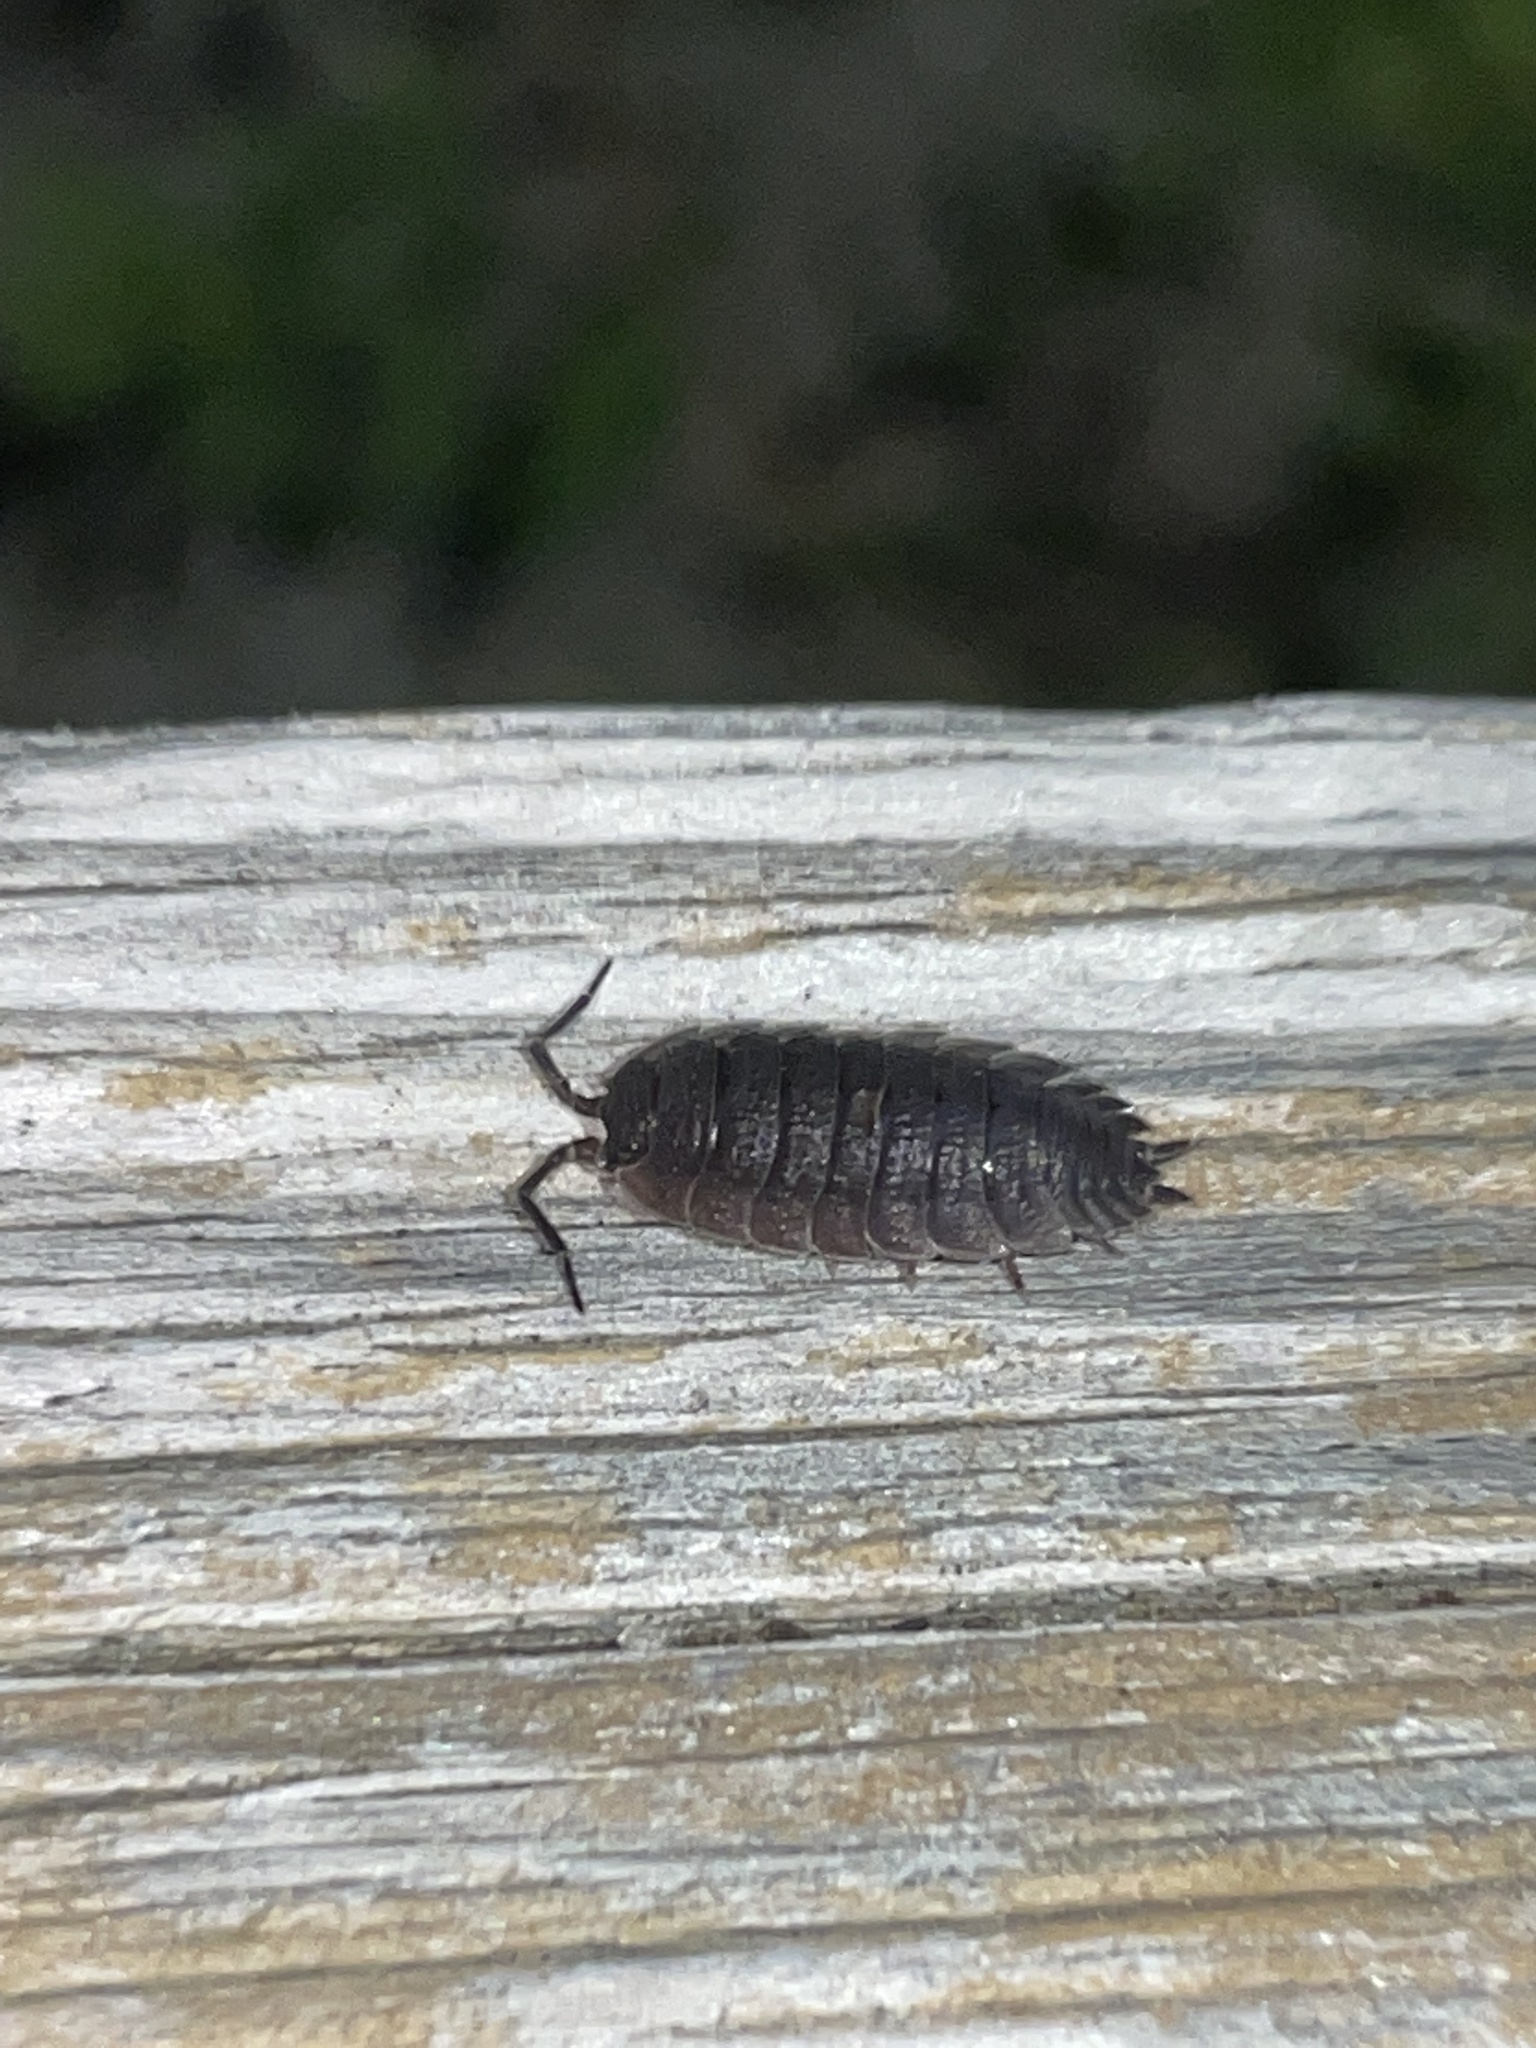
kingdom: Animalia
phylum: Arthropoda
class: Malacostraca
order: Isopoda
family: Porcellionidae
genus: Porcellio
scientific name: Porcellio scaber
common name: Common rough woodlouse
